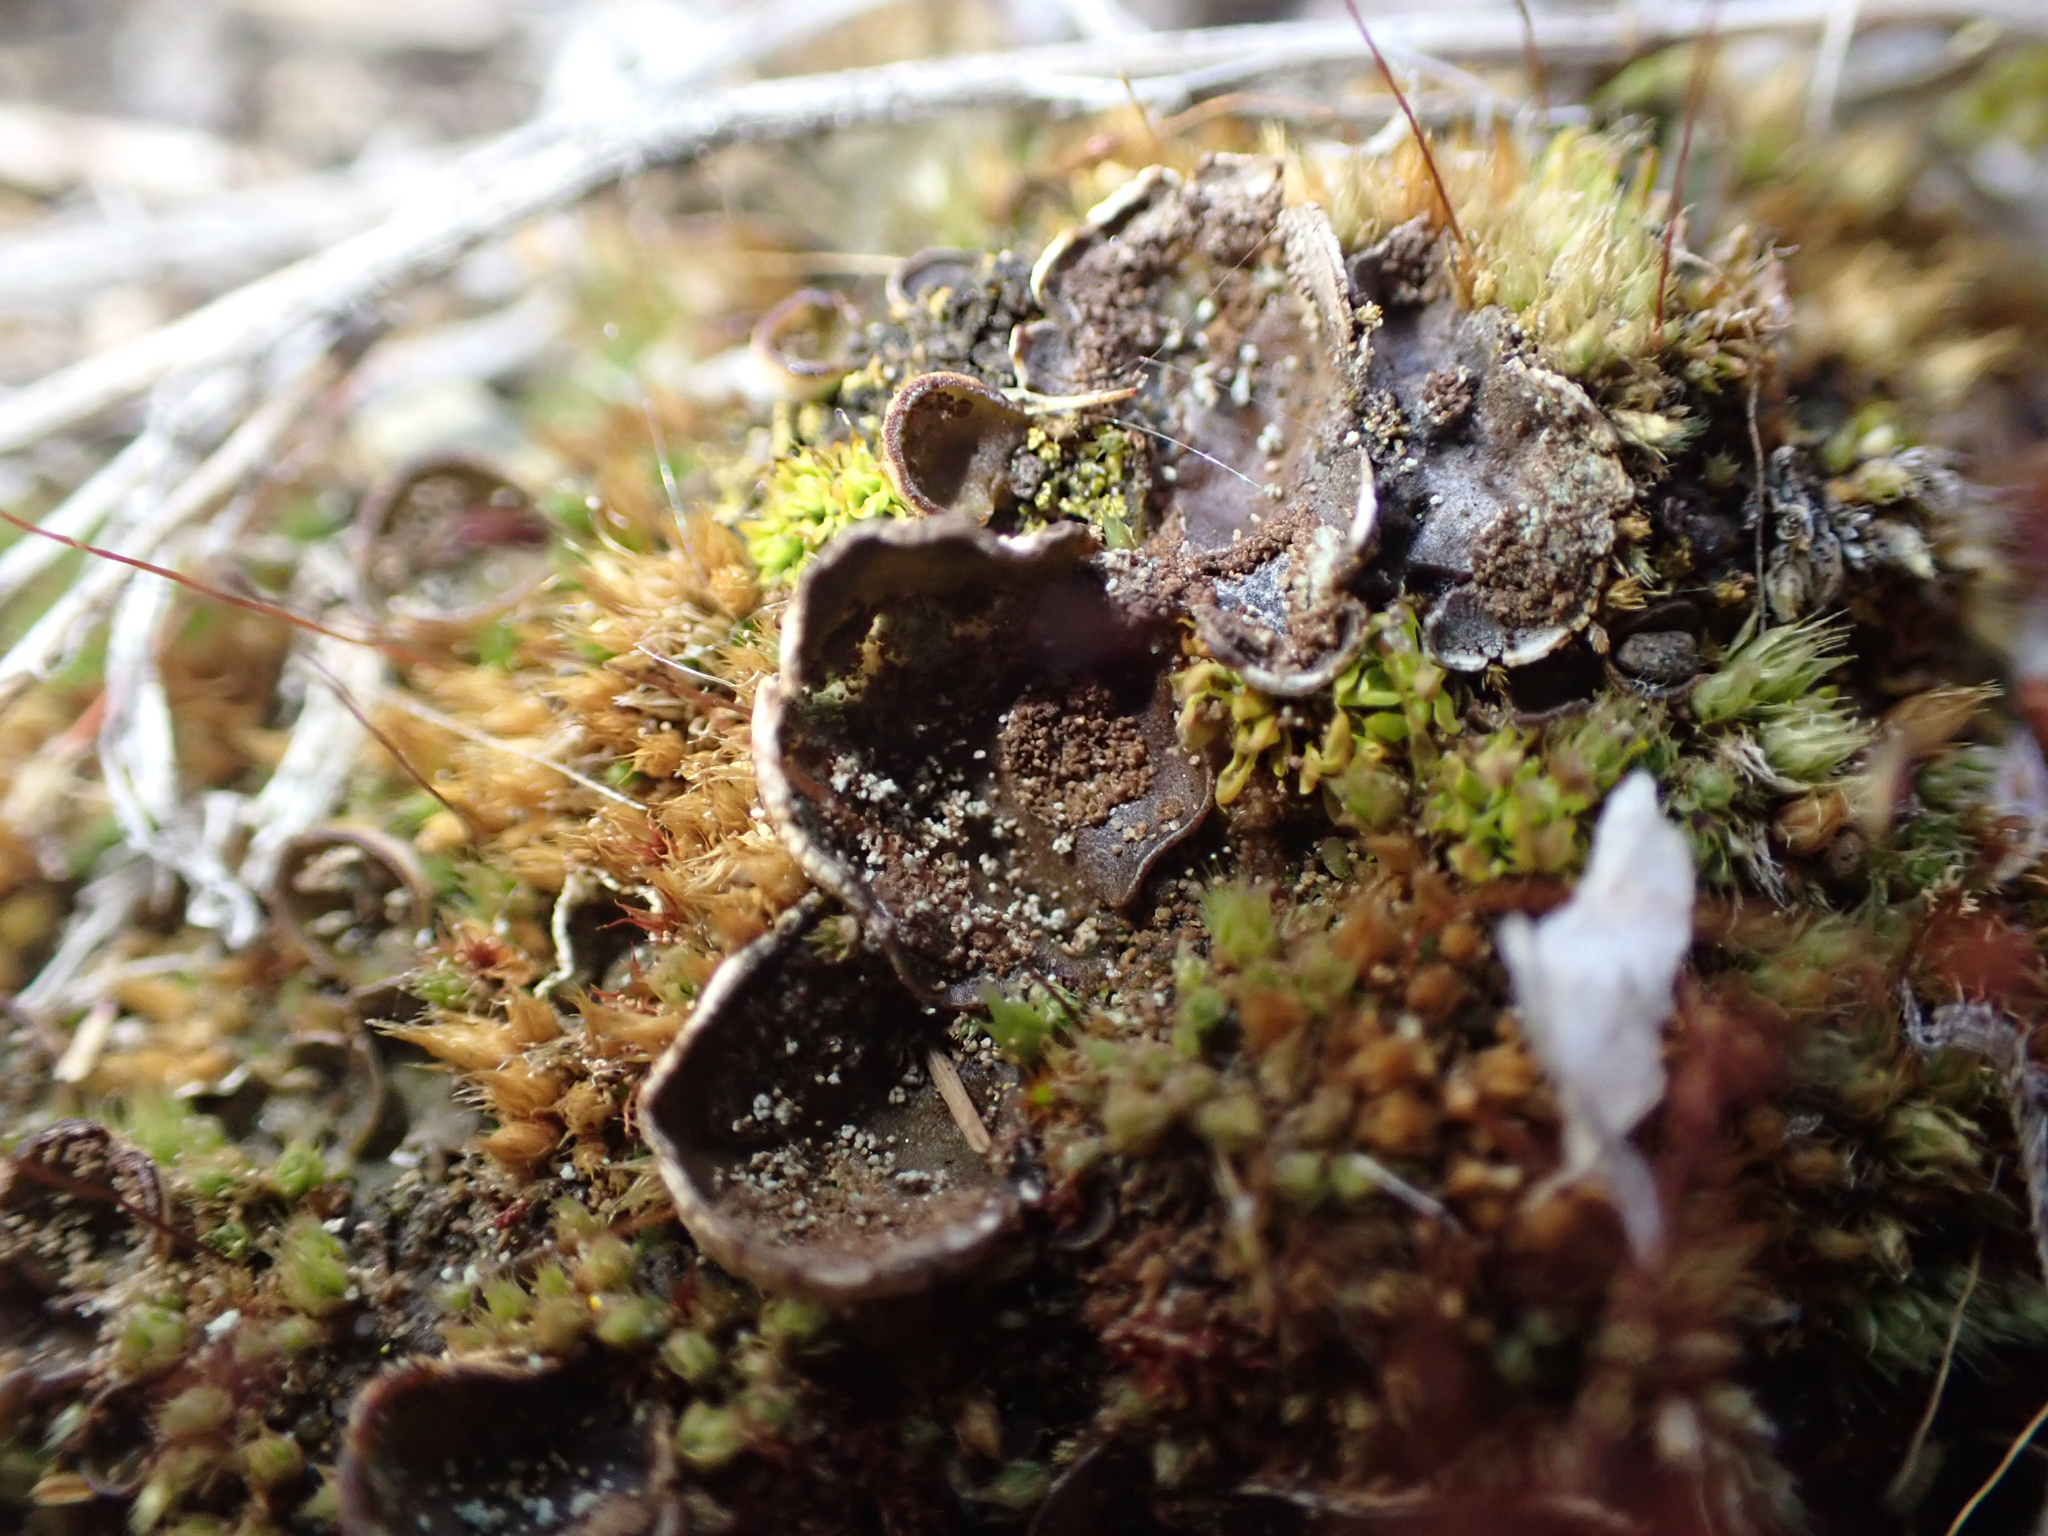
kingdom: Fungi
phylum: Ascomycota
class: Lecanoromycetes
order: Peltigerales
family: Peltigeraceae
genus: Peltigera
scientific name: Peltigera didactyla
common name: Alternating dog lichen
